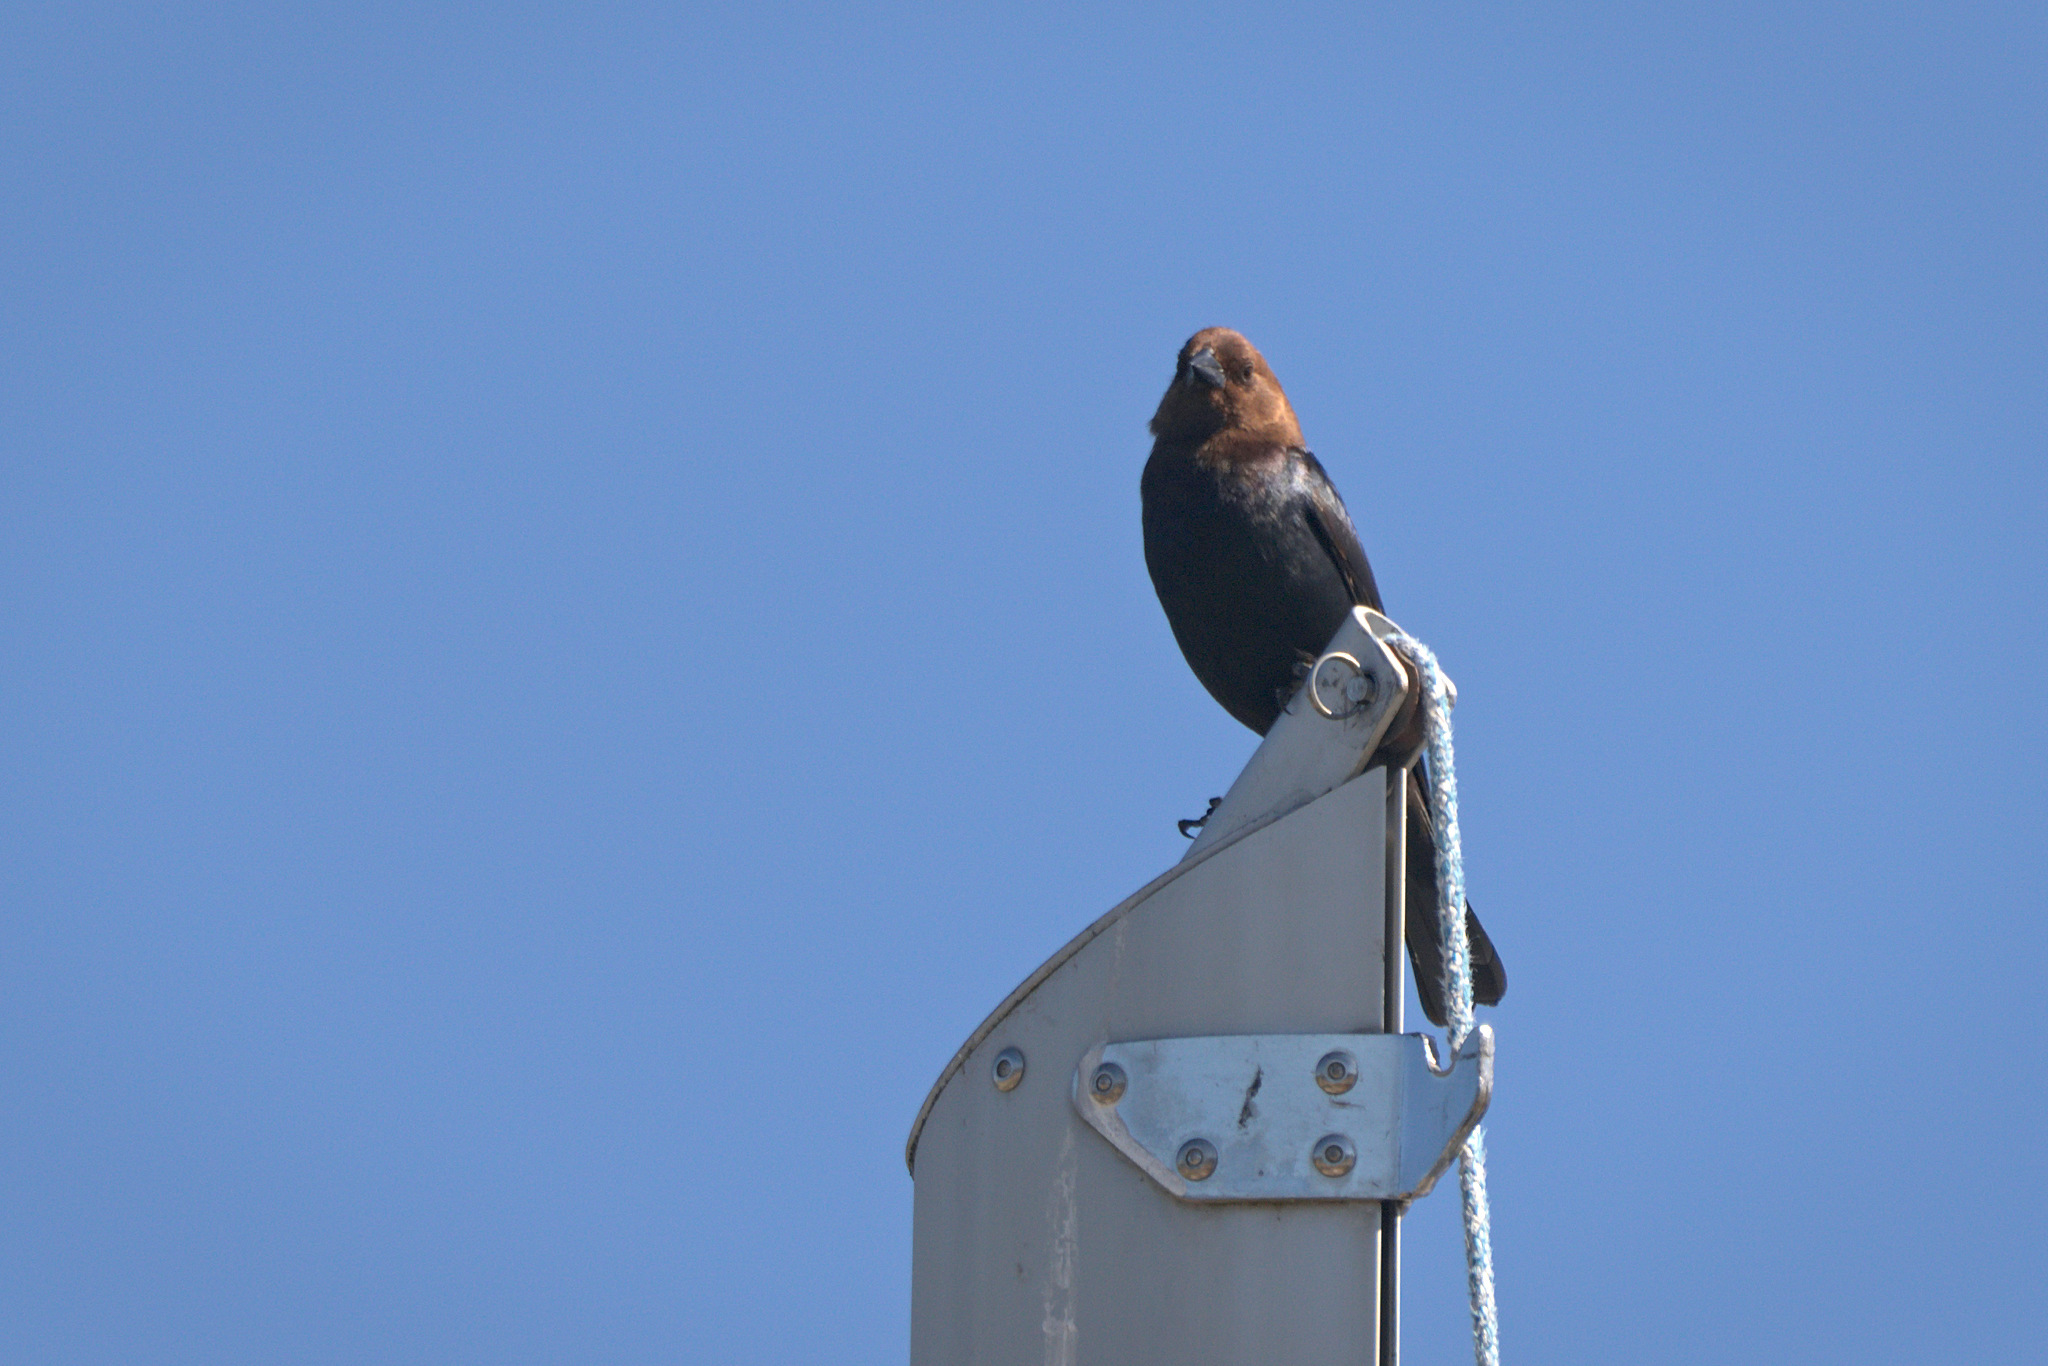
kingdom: Animalia
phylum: Chordata
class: Aves
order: Passeriformes
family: Icteridae
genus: Molothrus
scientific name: Molothrus ater
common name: Brown-headed cowbird
